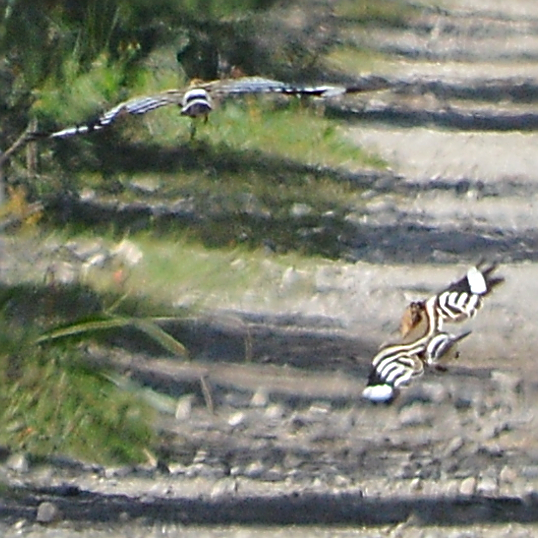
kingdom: Animalia
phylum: Chordata
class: Aves
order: Bucerotiformes
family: Upupidae
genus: Upupa
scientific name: Upupa epops
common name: Eurasian hoopoe
